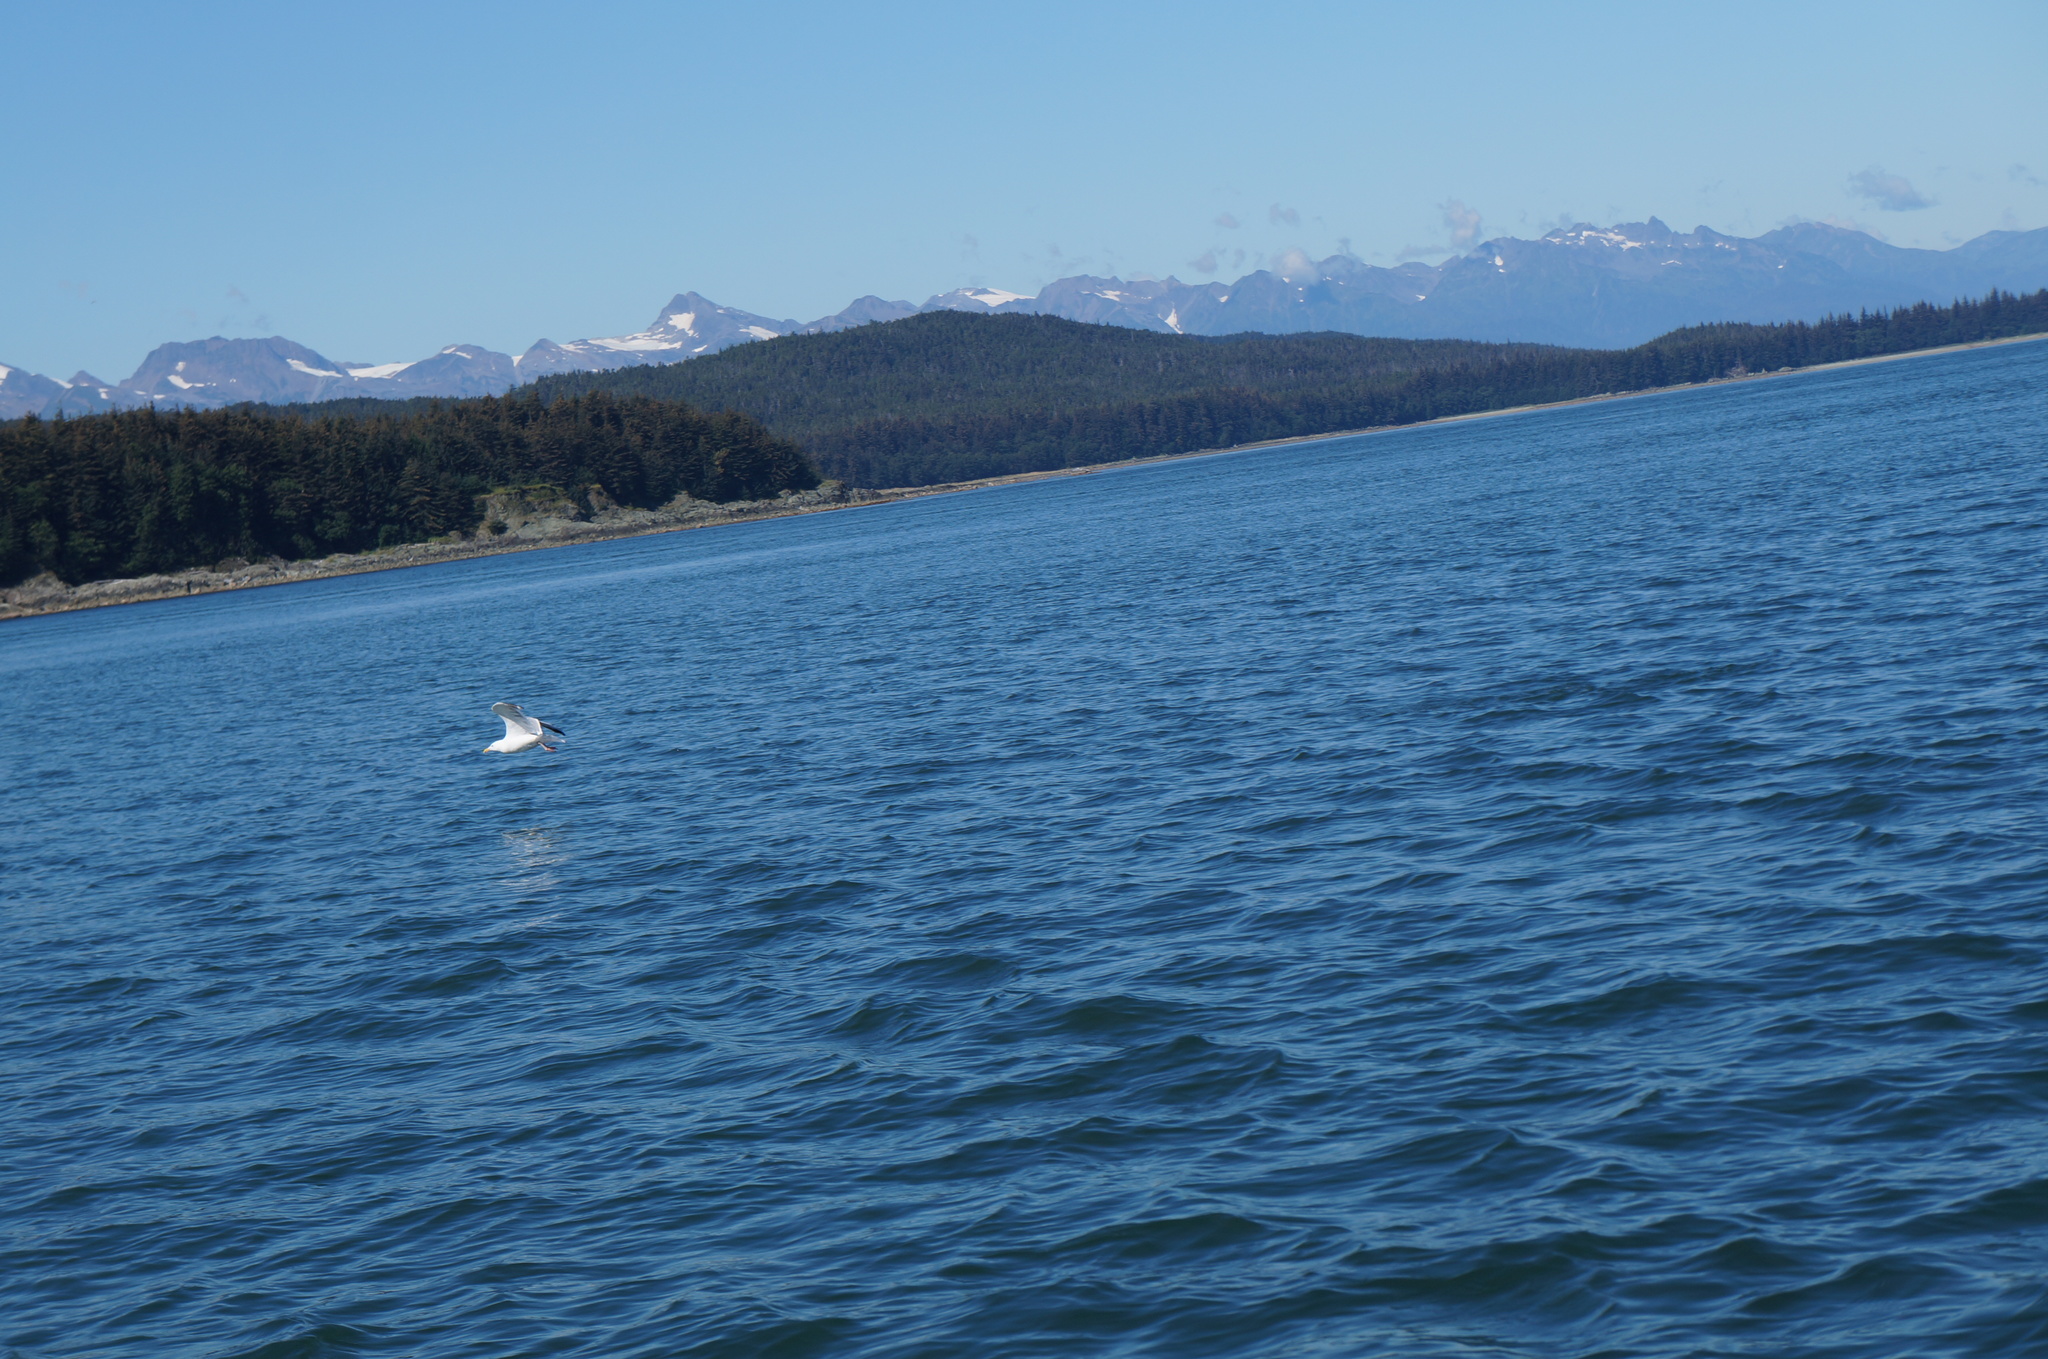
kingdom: Animalia
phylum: Chordata
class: Aves
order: Charadriiformes
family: Laridae
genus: Larus
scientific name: Larus argentatus
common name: Herring gull
